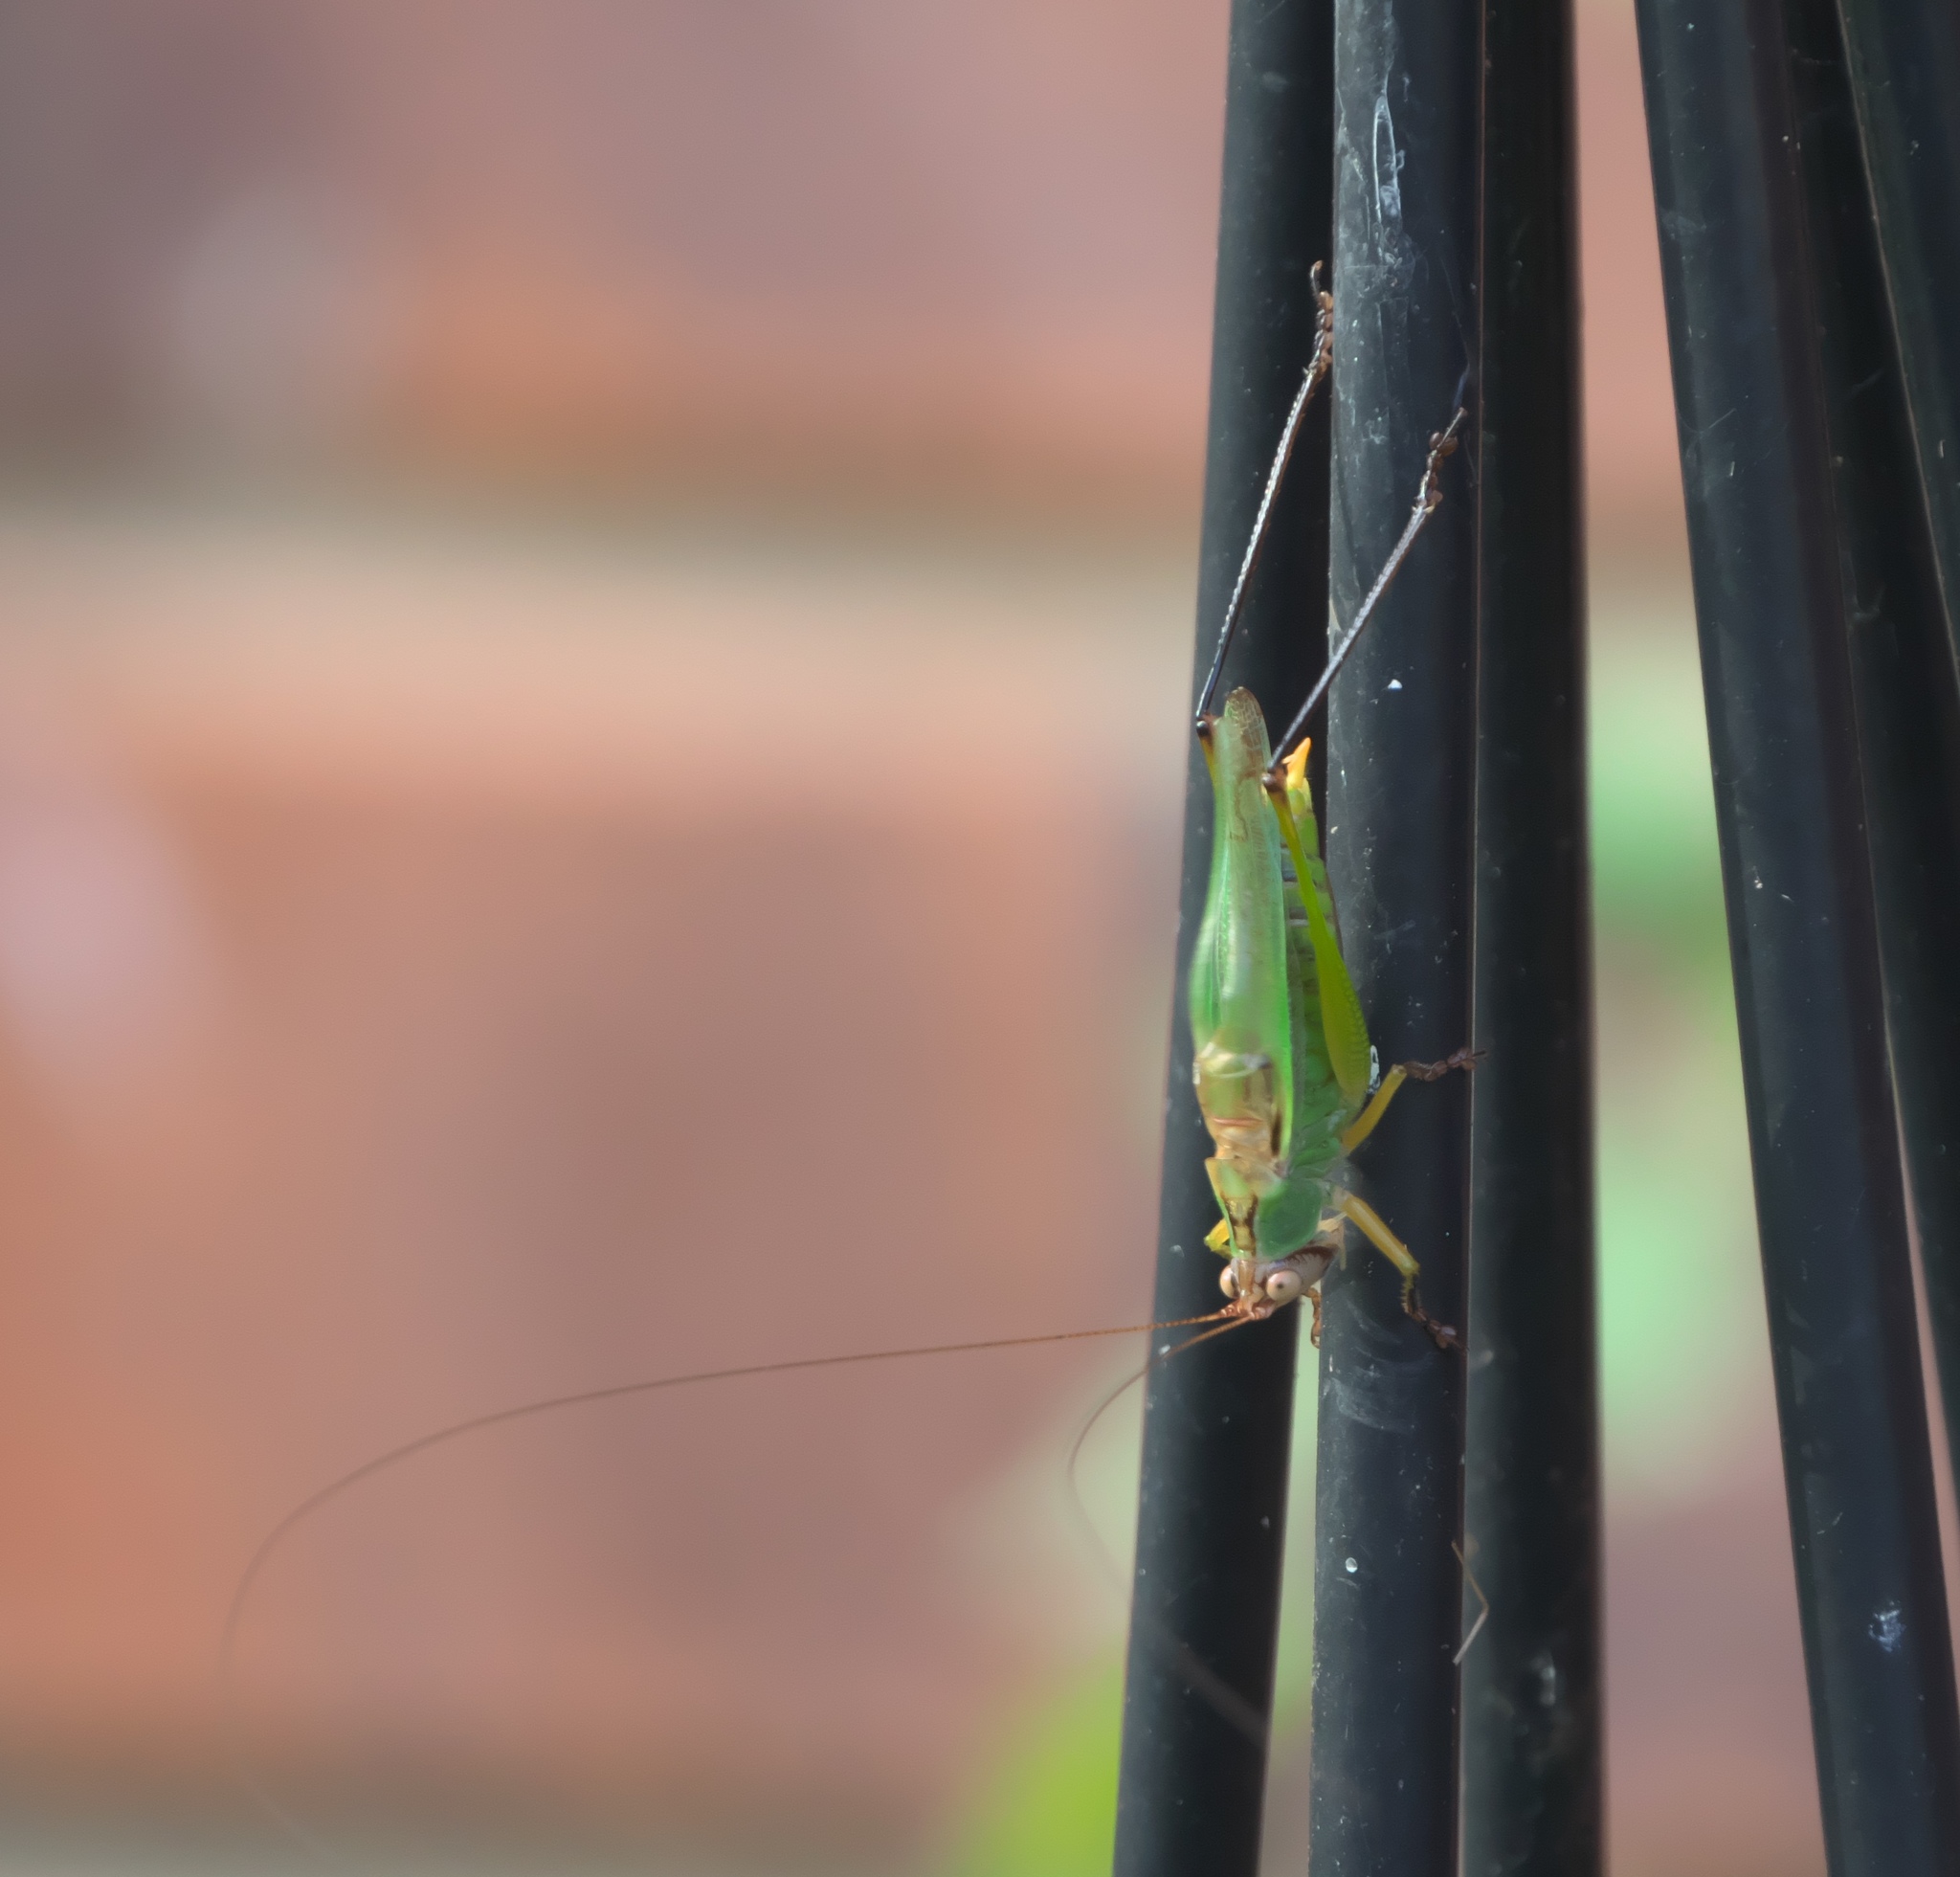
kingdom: Animalia
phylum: Arthropoda
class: Insecta
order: Orthoptera
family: Tettigoniidae
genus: Orchelimum
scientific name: Orchelimum nigripes
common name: Black-legged meadow katydid
